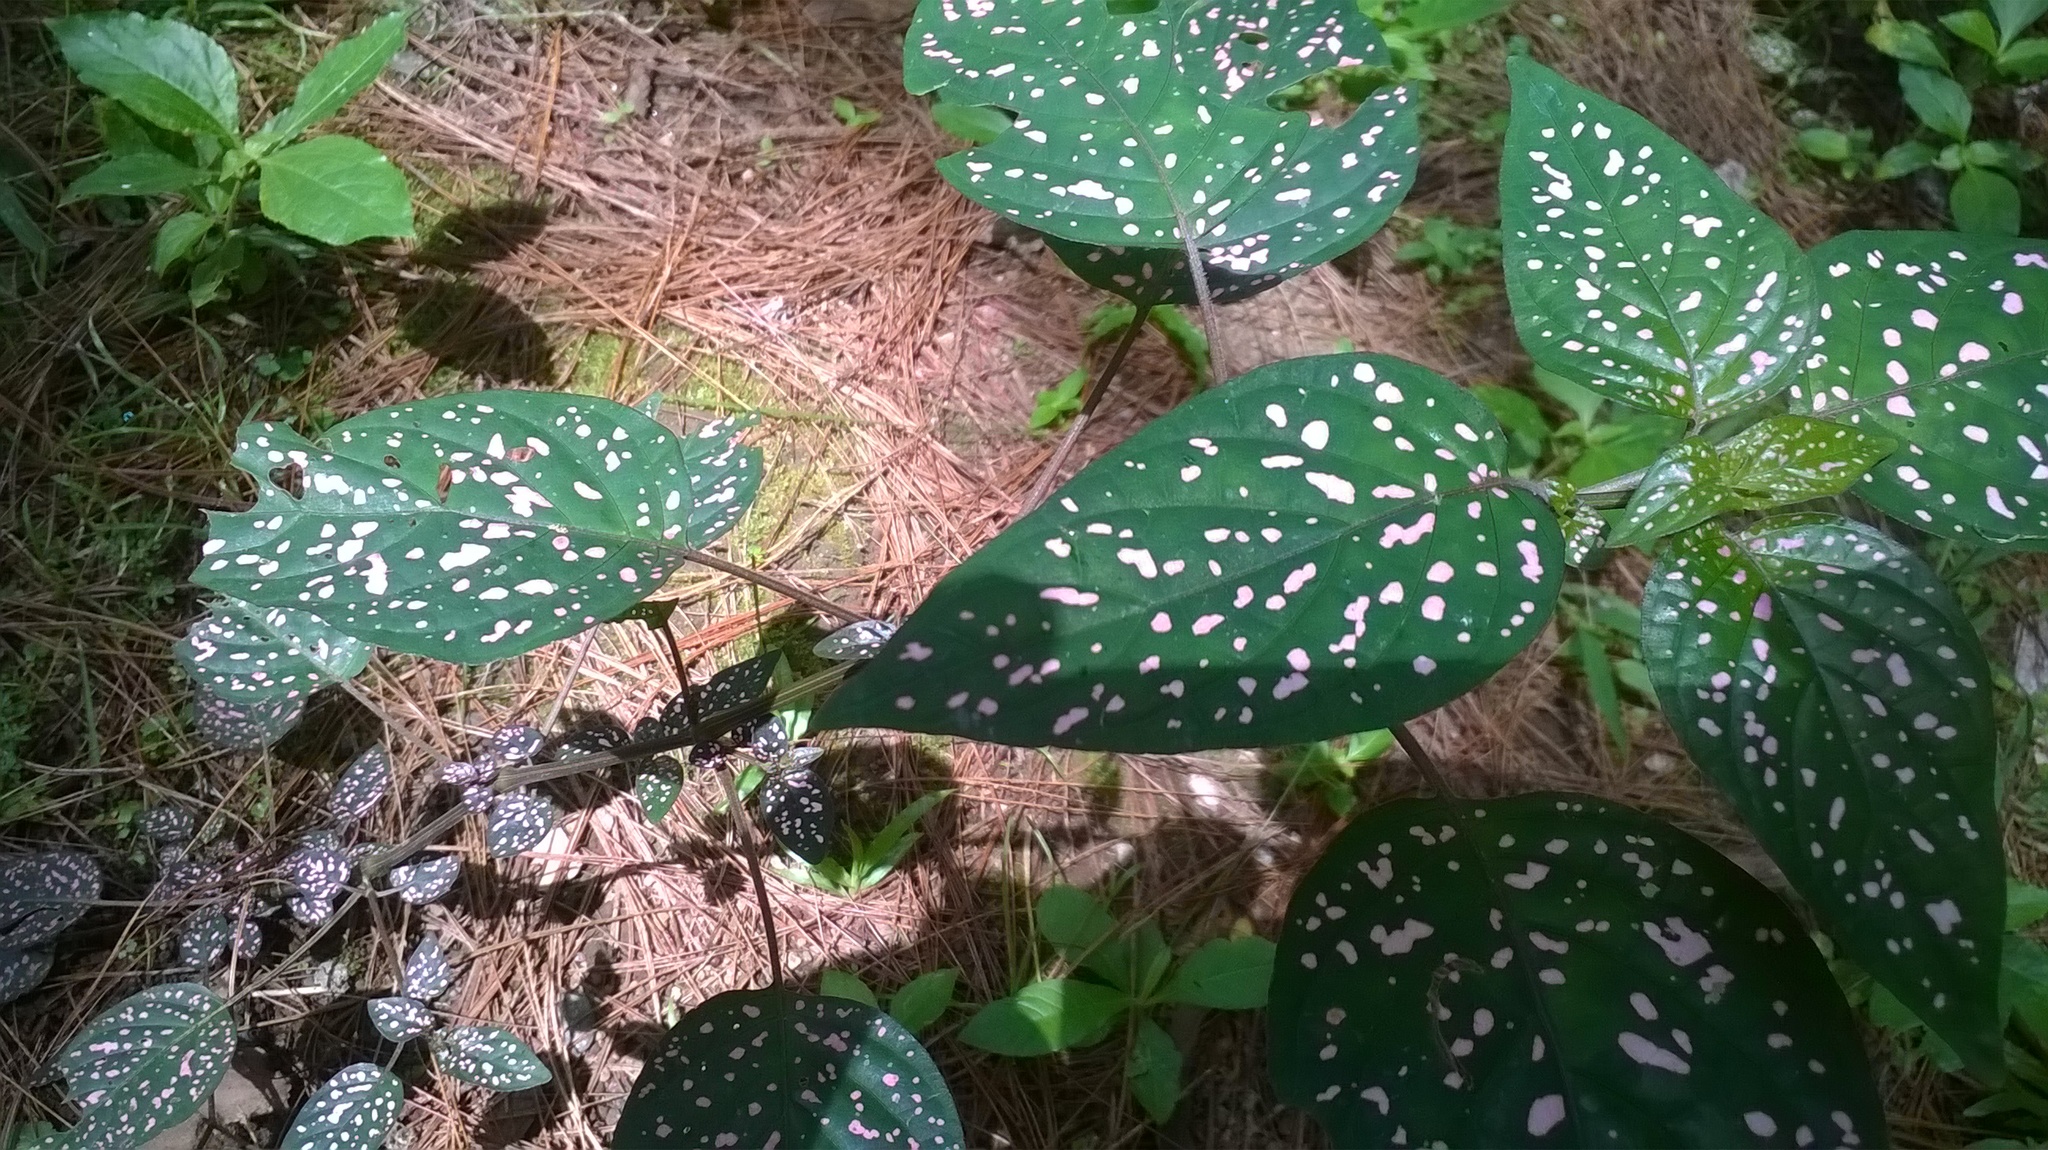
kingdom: Plantae
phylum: Tracheophyta
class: Magnoliopsida
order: Lamiales
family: Acanthaceae
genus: Hypoestes
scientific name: Hypoestes phyllostachya
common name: Polkadot-plant
